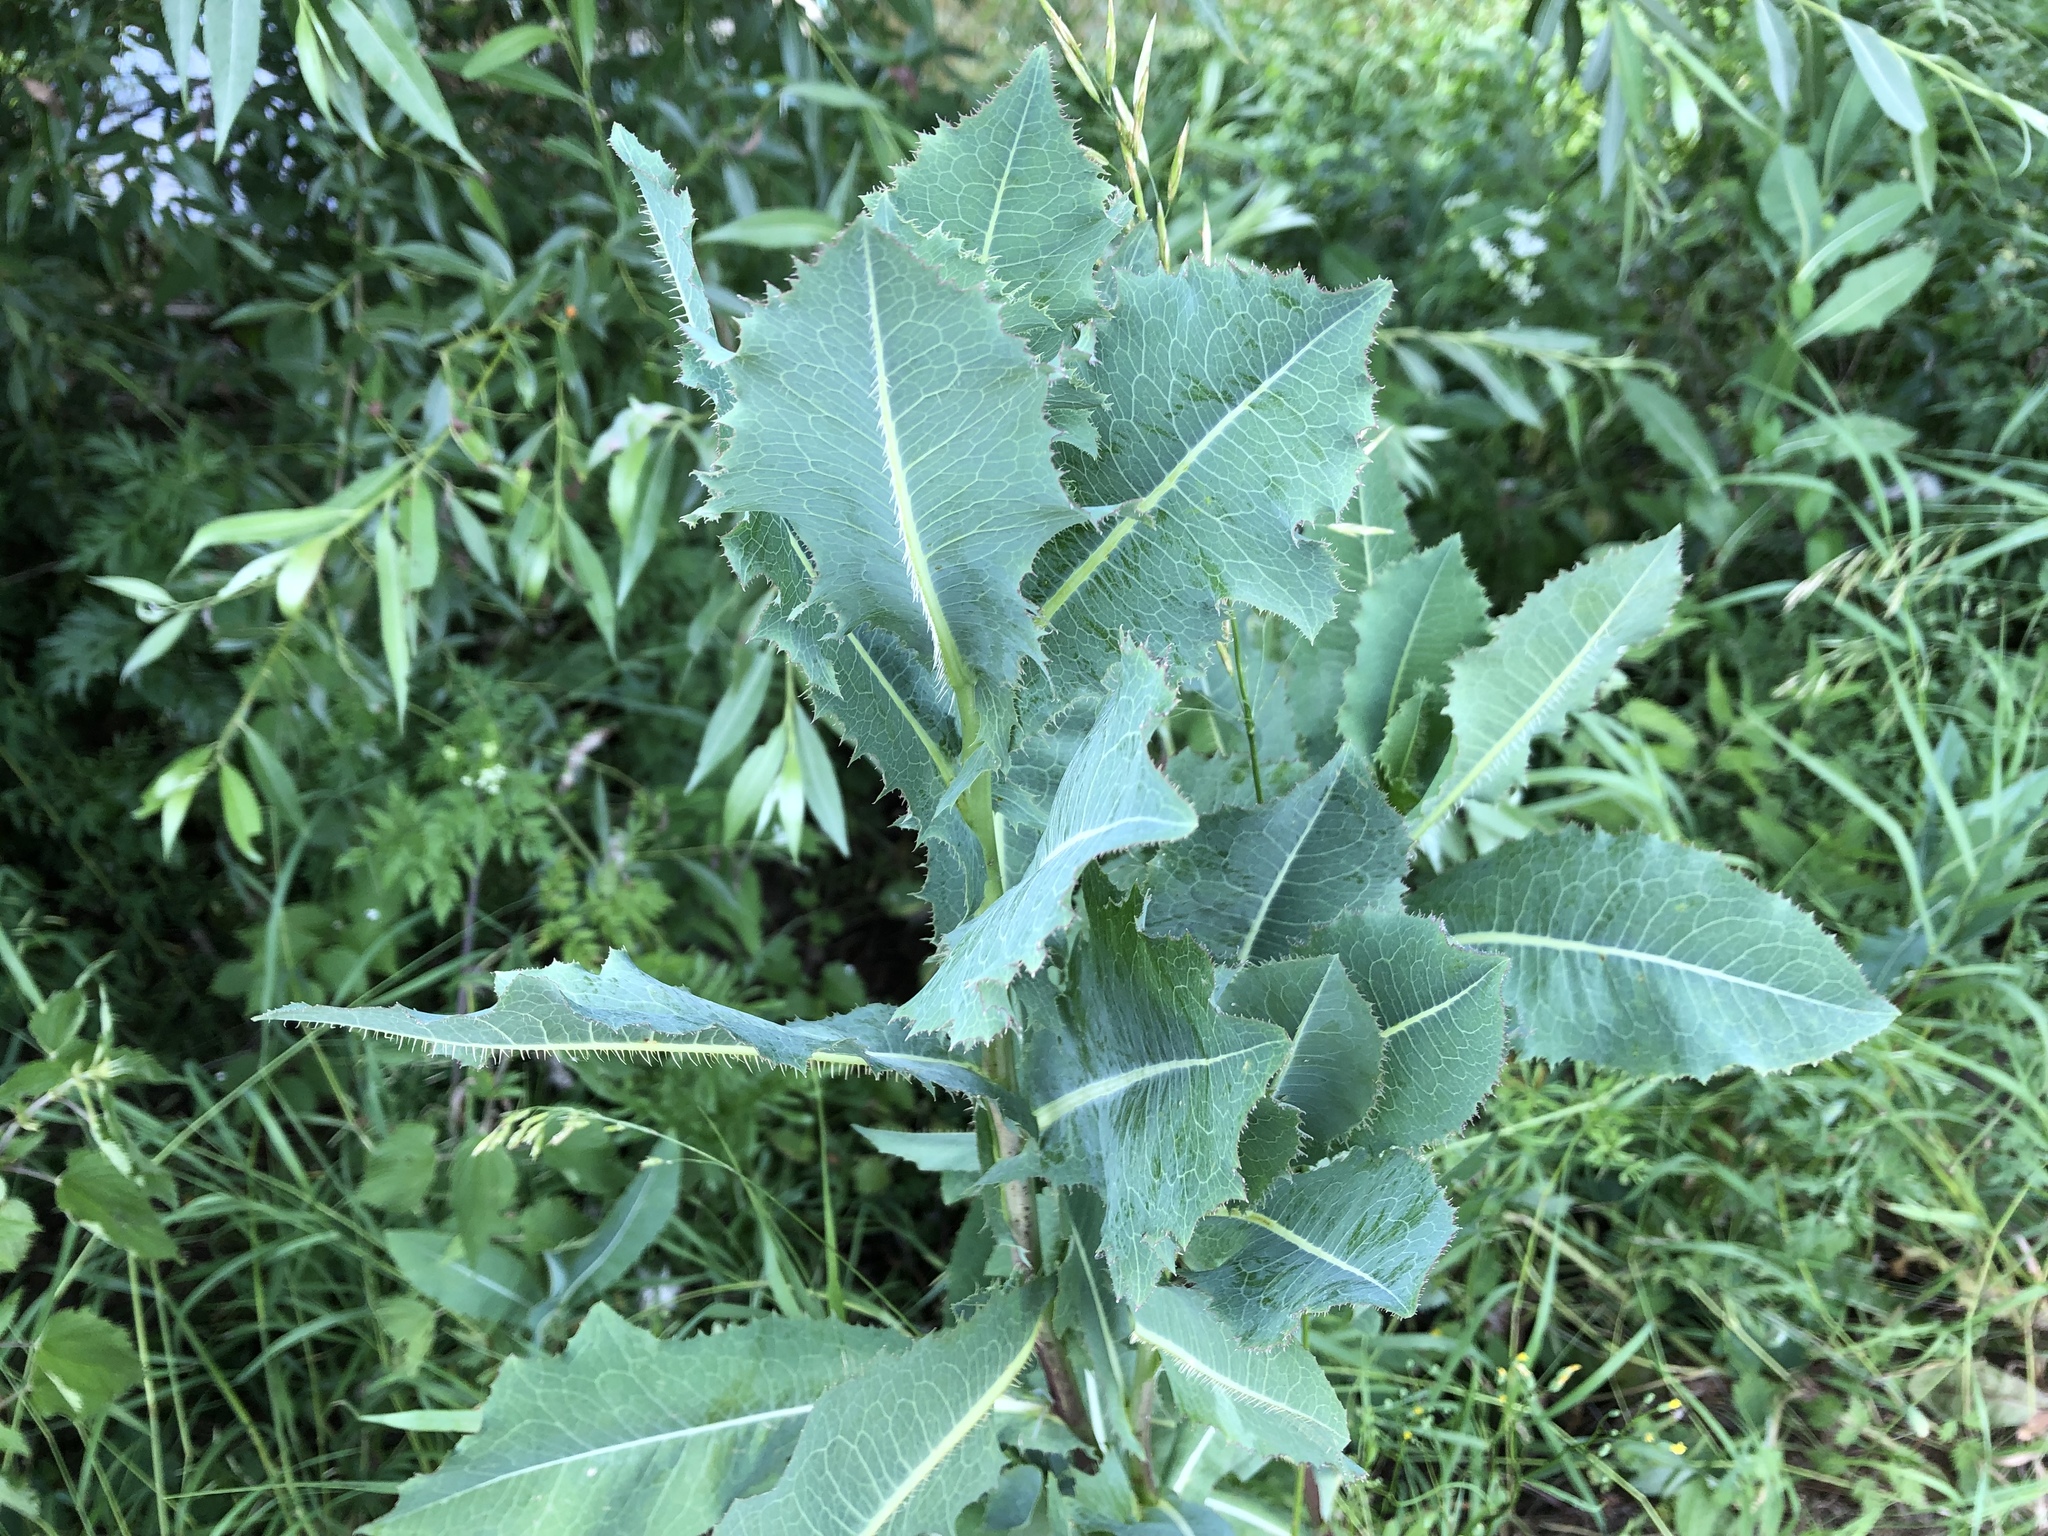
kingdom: Plantae
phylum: Tracheophyta
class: Magnoliopsida
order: Asterales
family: Asteraceae
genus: Lactuca
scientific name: Lactuca serriola
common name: Prickly lettuce
